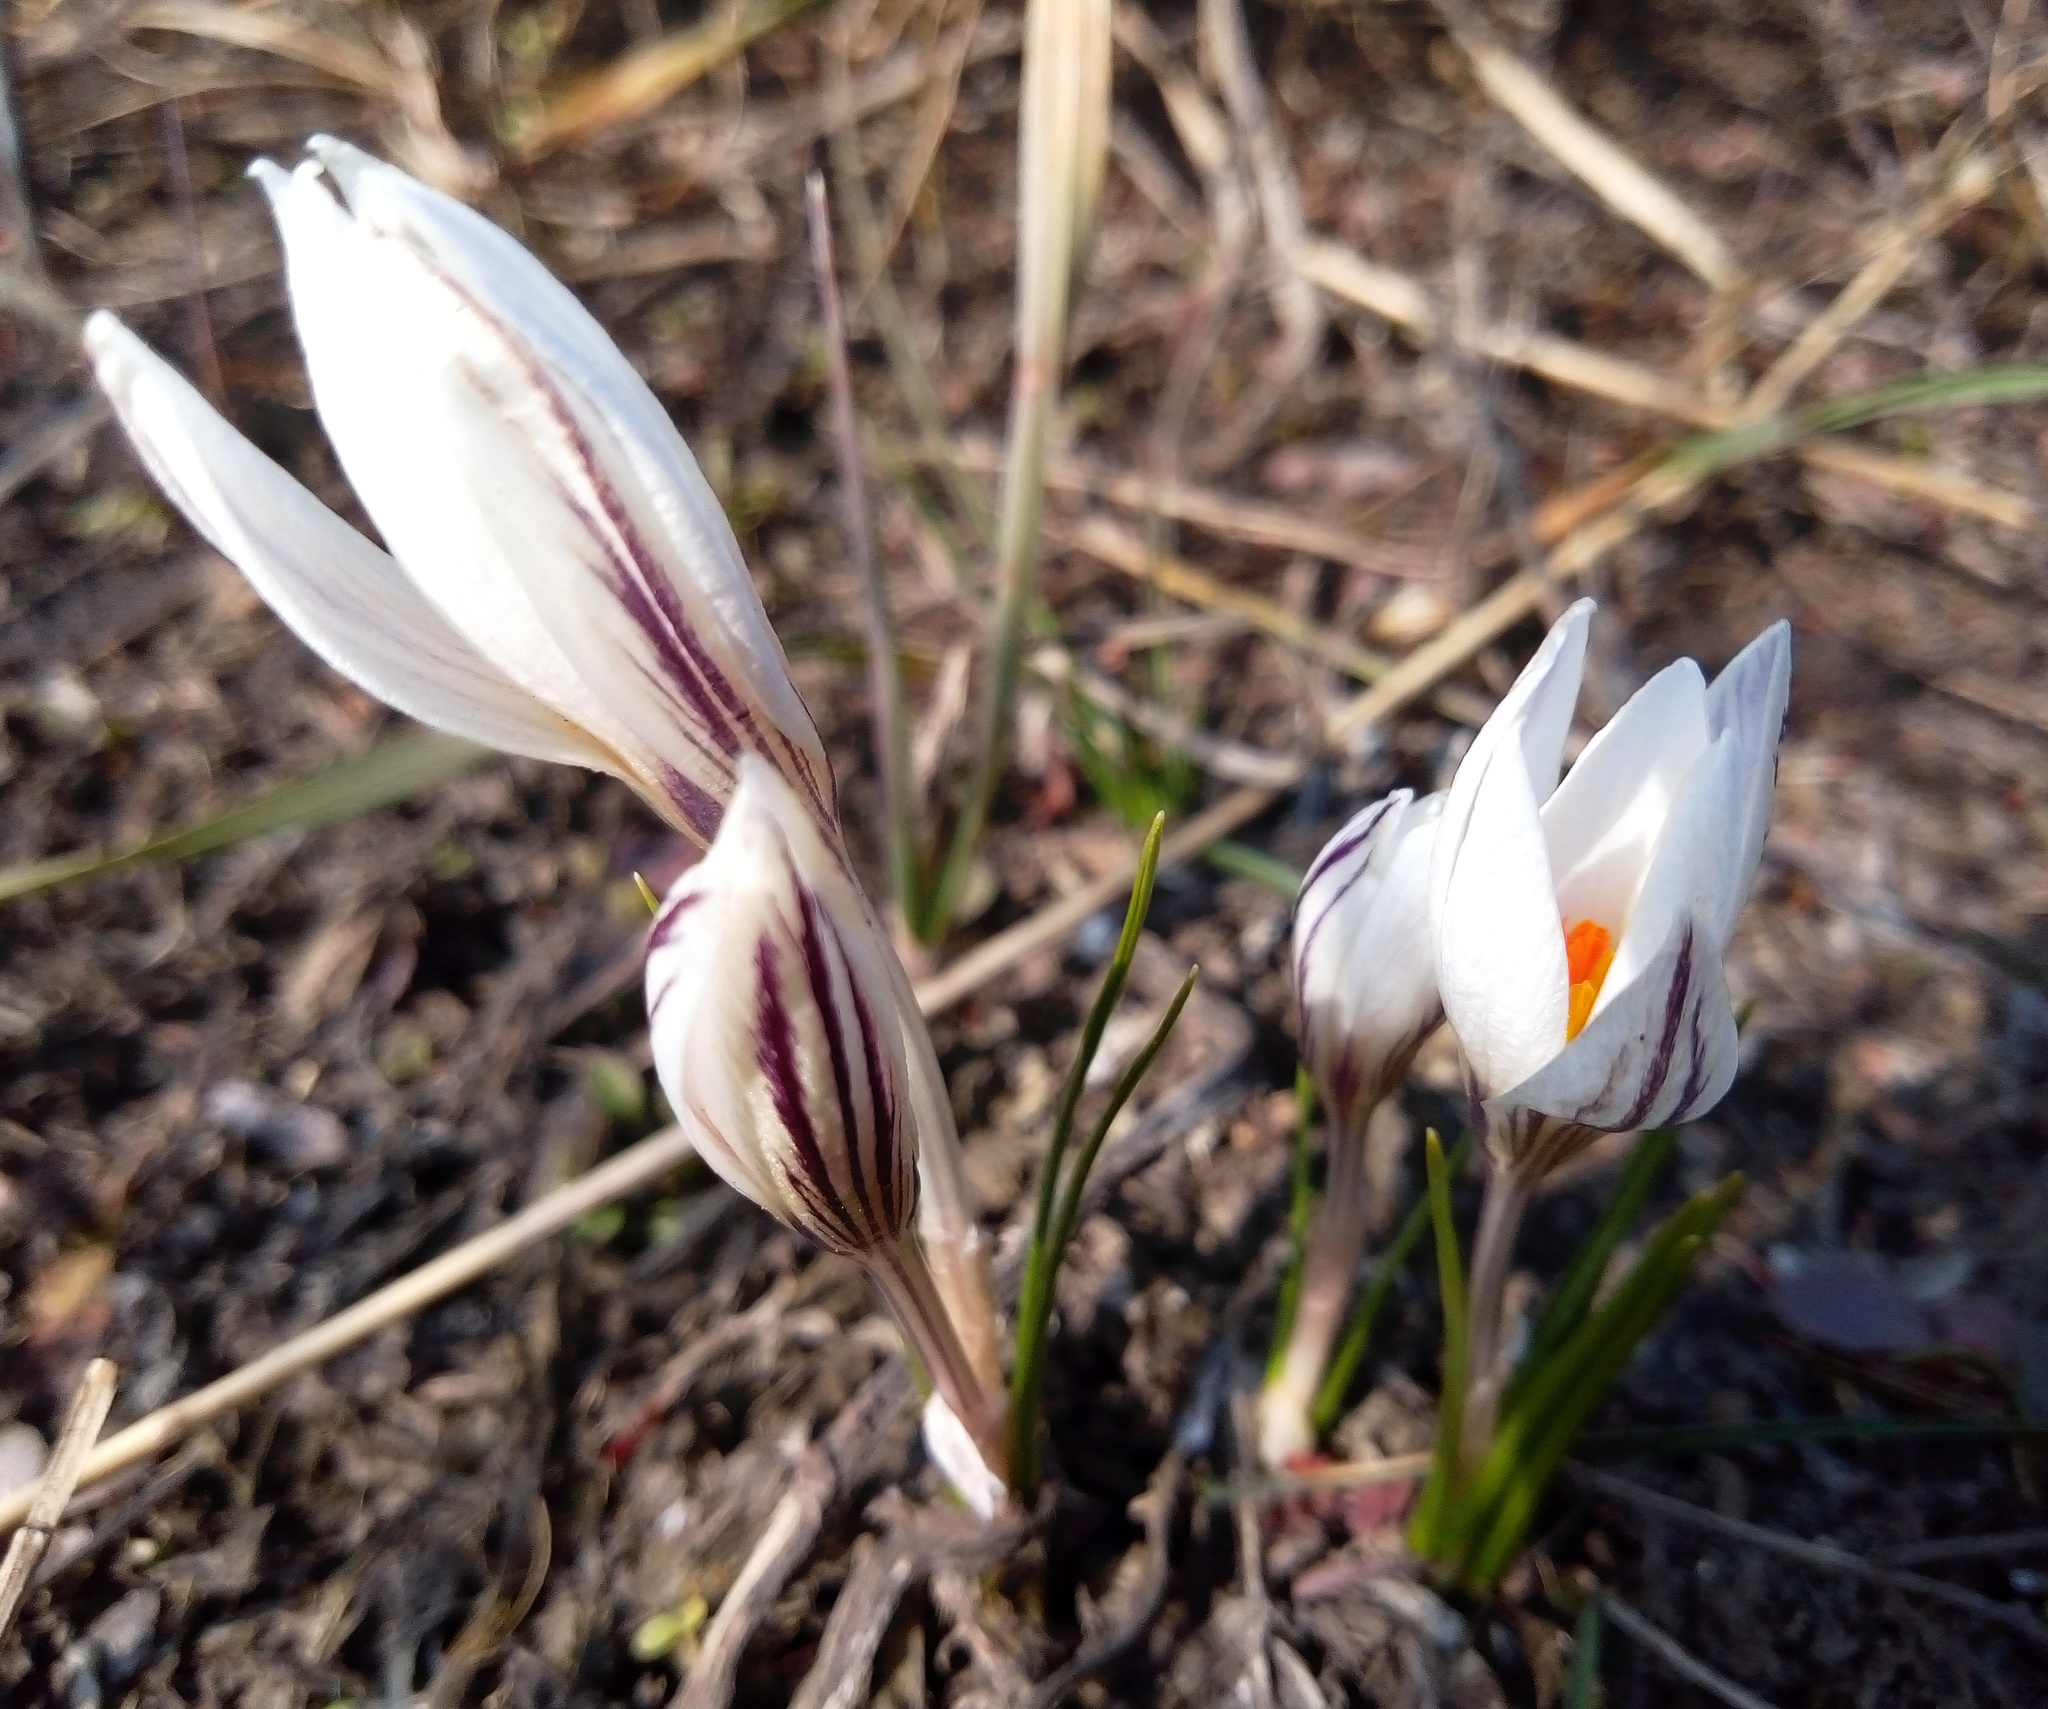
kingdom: Plantae
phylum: Tracheophyta
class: Liliopsida
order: Asparagales
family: Iridaceae
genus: Crocus
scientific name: Crocus reticulatus
